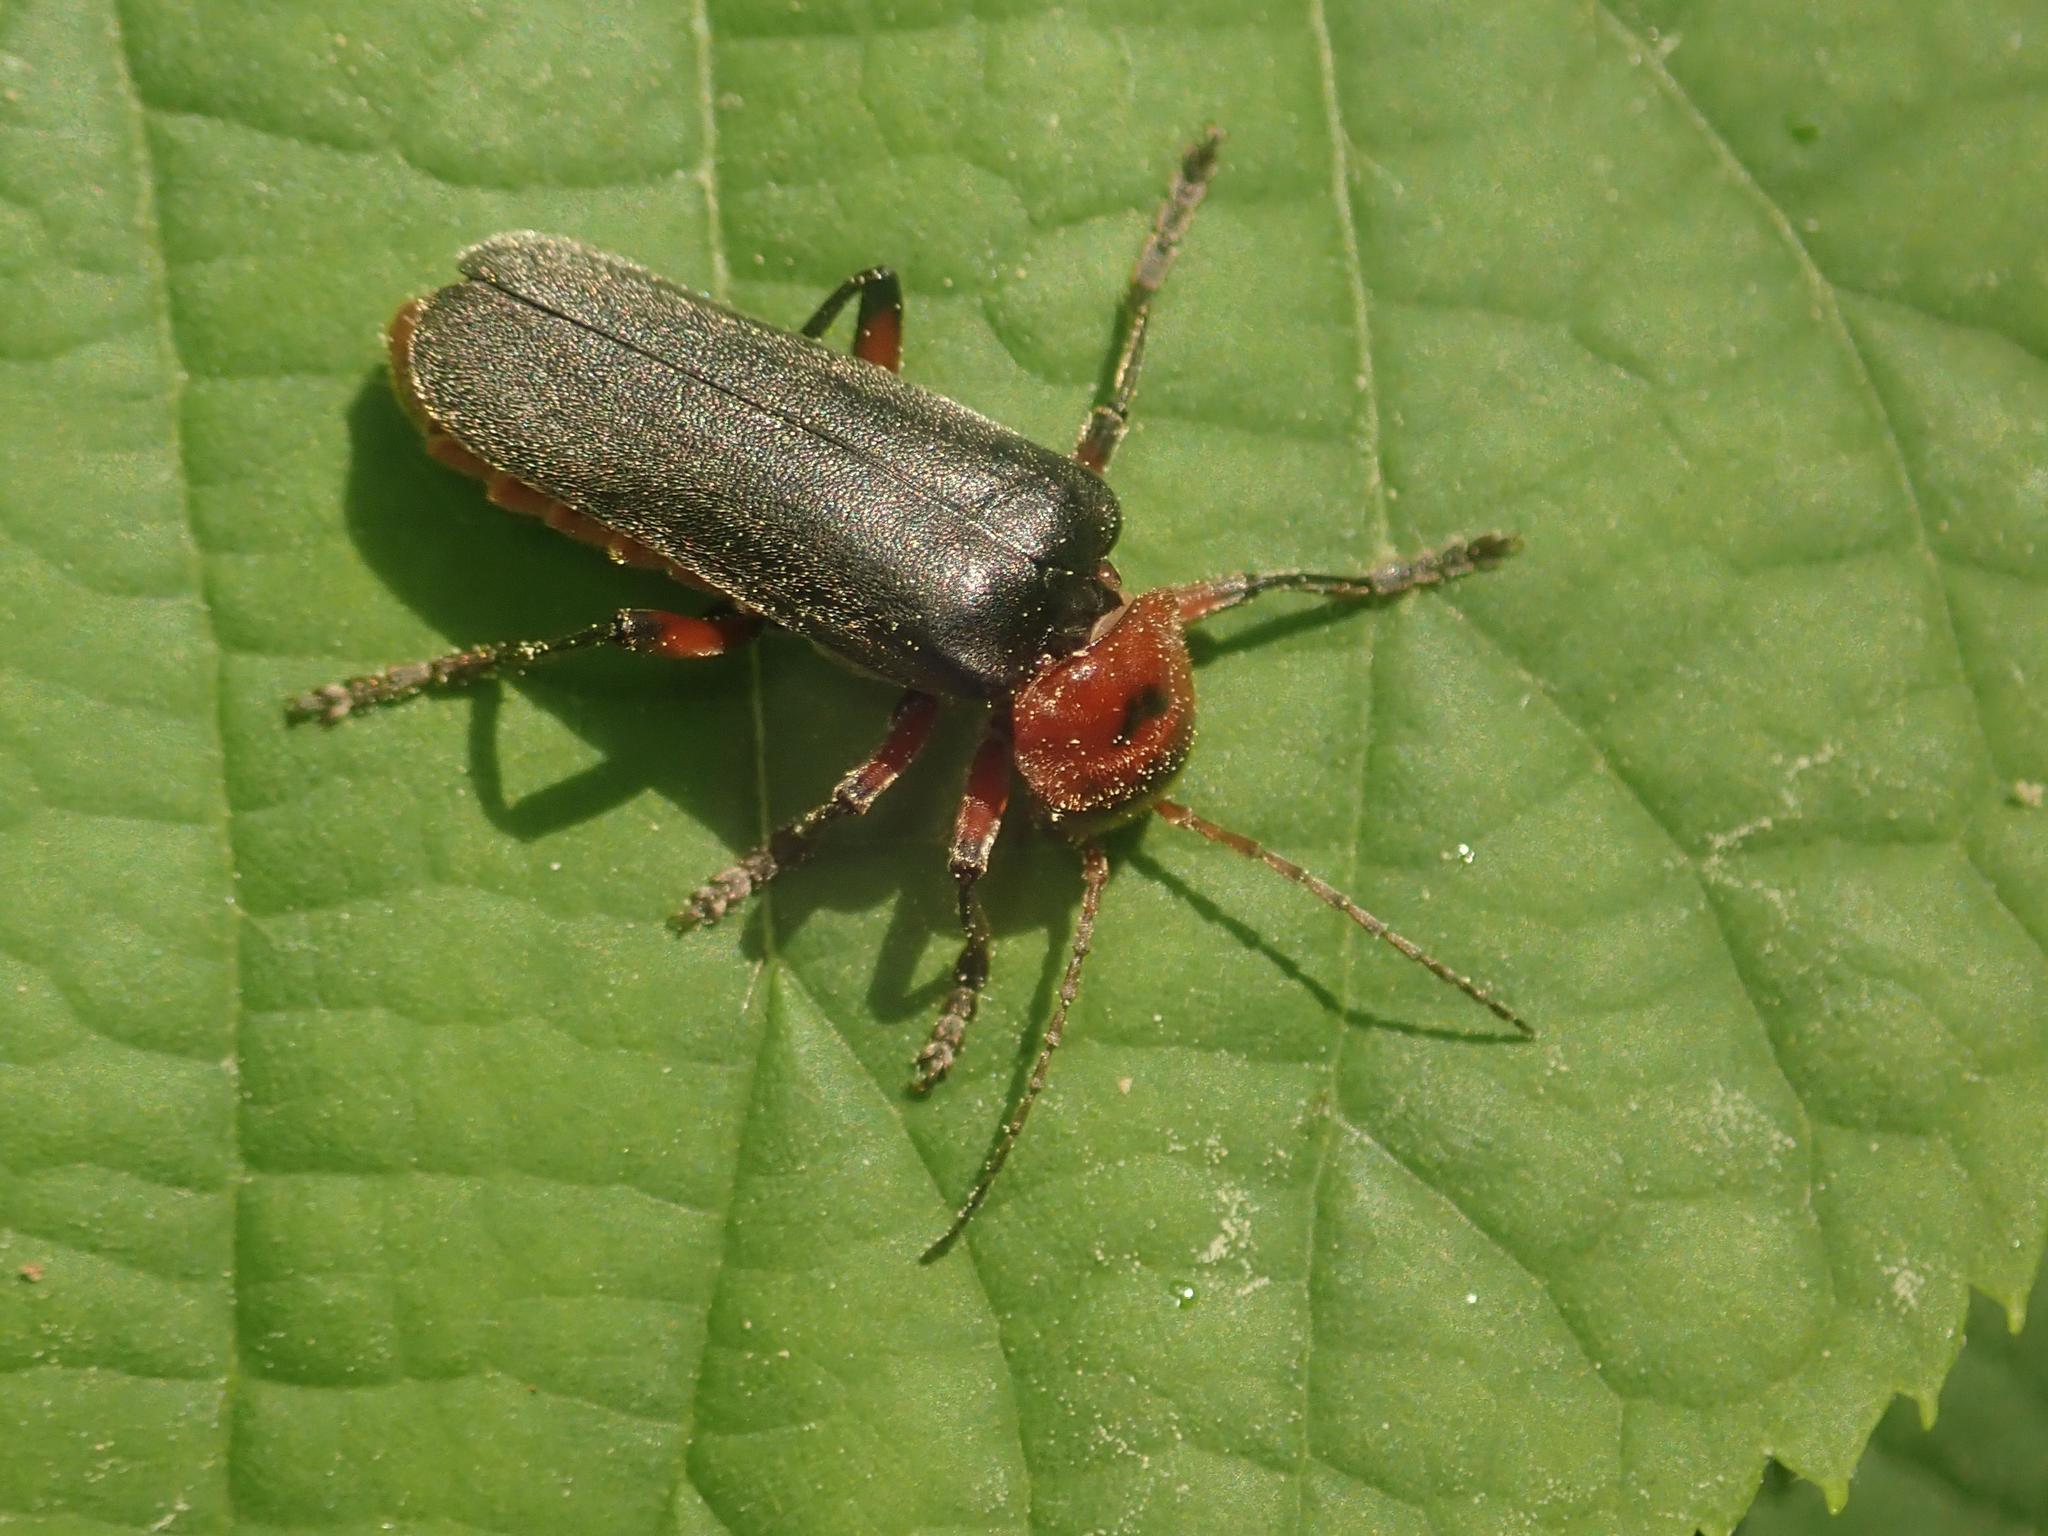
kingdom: Animalia
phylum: Arthropoda
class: Insecta
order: Coleoptera
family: Cantharidae
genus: Cantharis
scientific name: Cantharis rustica
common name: Soldier beetle
